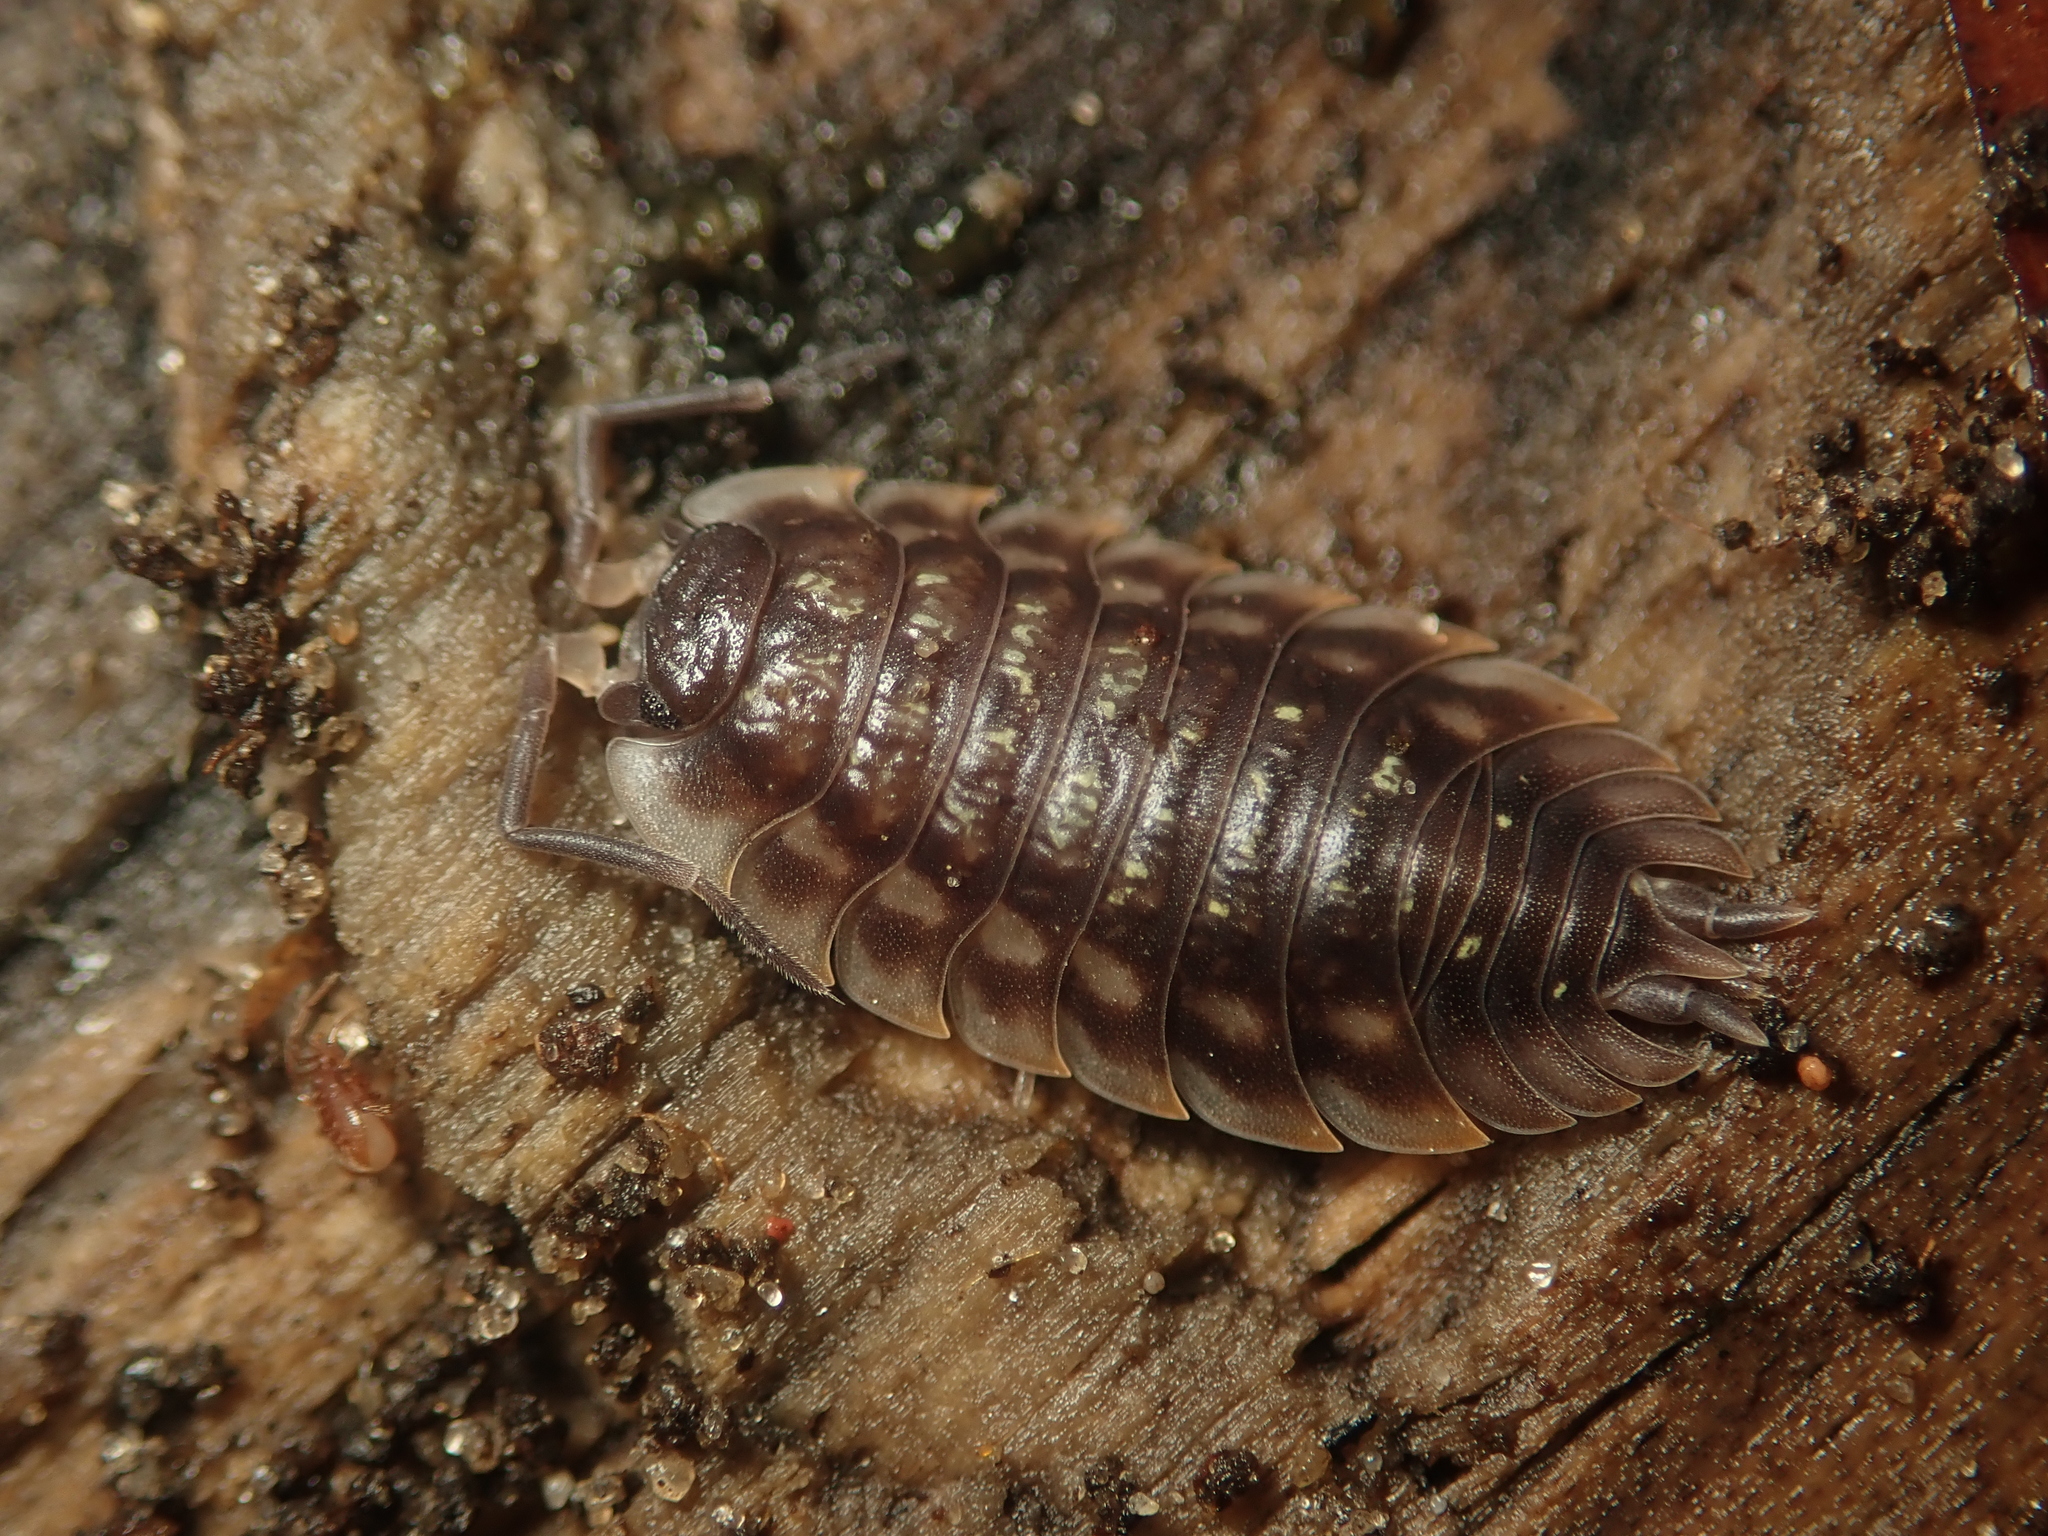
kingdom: Animalia
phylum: Arthropoda
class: Malacostraca
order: Isopoda
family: Oniscidae
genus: Oniscus
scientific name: Oniscus asellus
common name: Common shiny woodlouse
